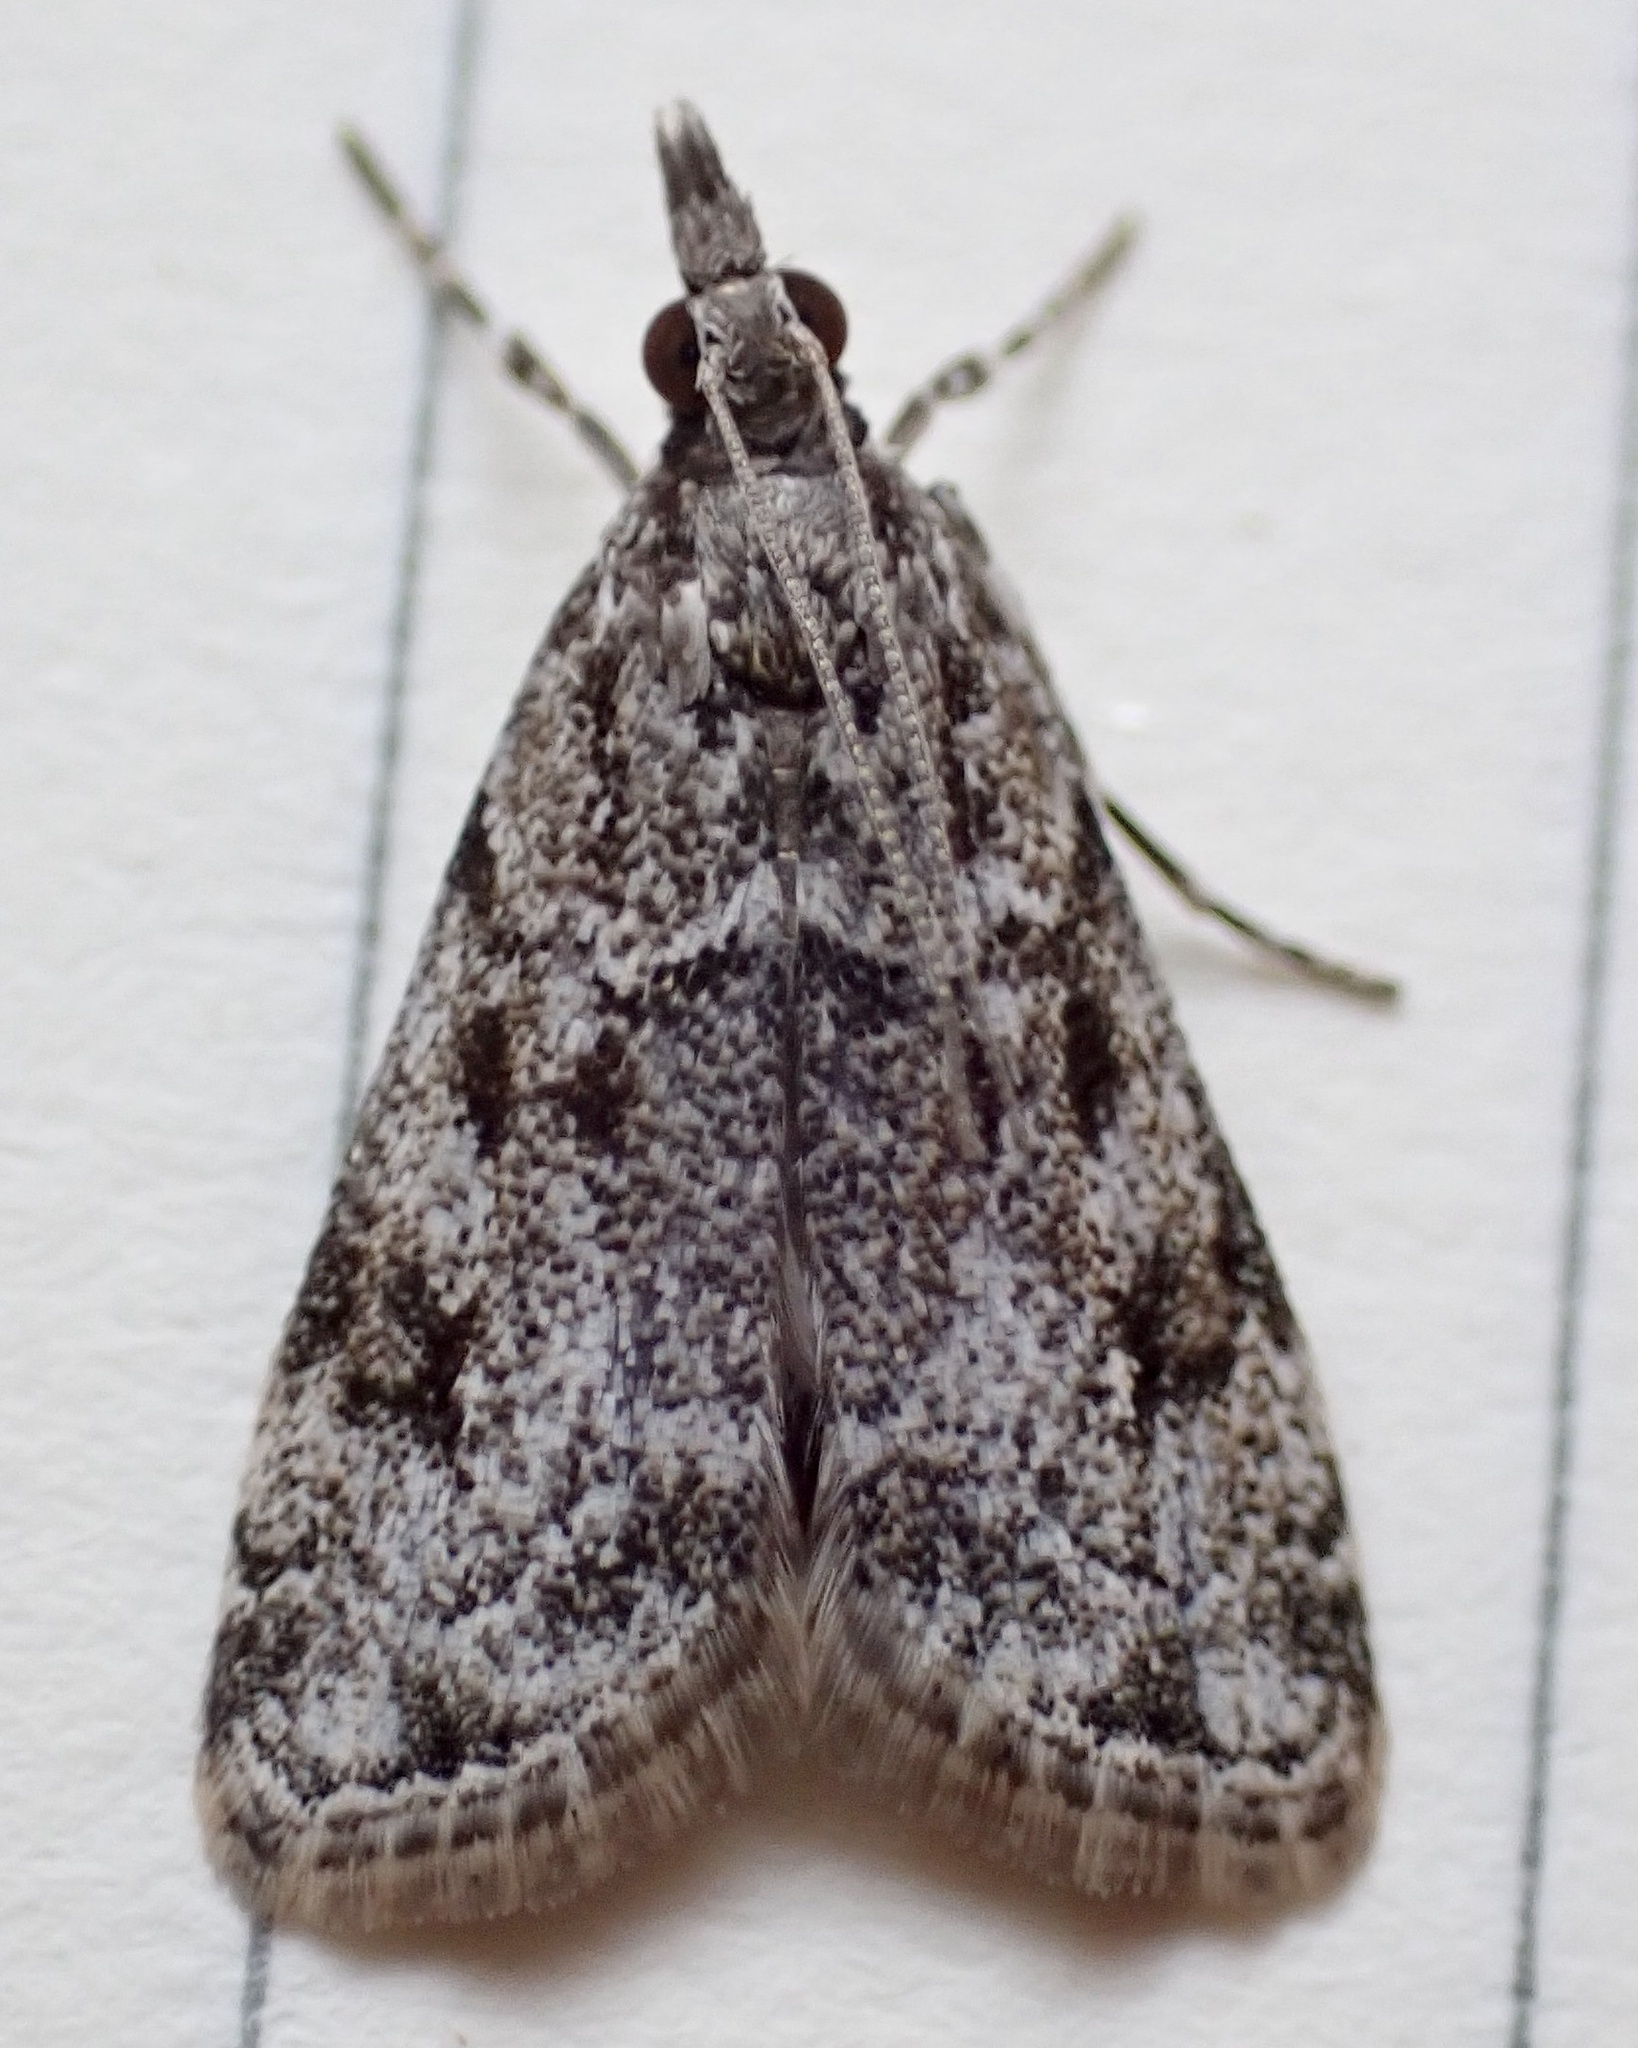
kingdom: Animalia
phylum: Arthropoda
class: Insecta
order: Lepidoptera
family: Crambidae
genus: Eudonia
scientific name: Eudonia heterosalis
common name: Mcdunnough's eudonia
